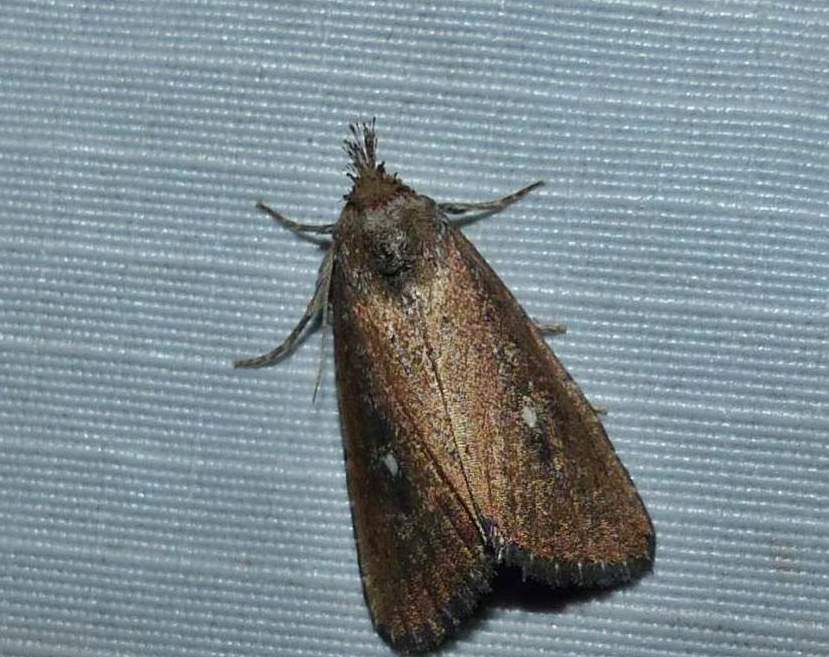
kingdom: Animalia
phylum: Arthropoda
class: Insecta
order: Lepidoptera
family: Noctuidae
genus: Condica
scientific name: Condica videns
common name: White-dotted groundling
